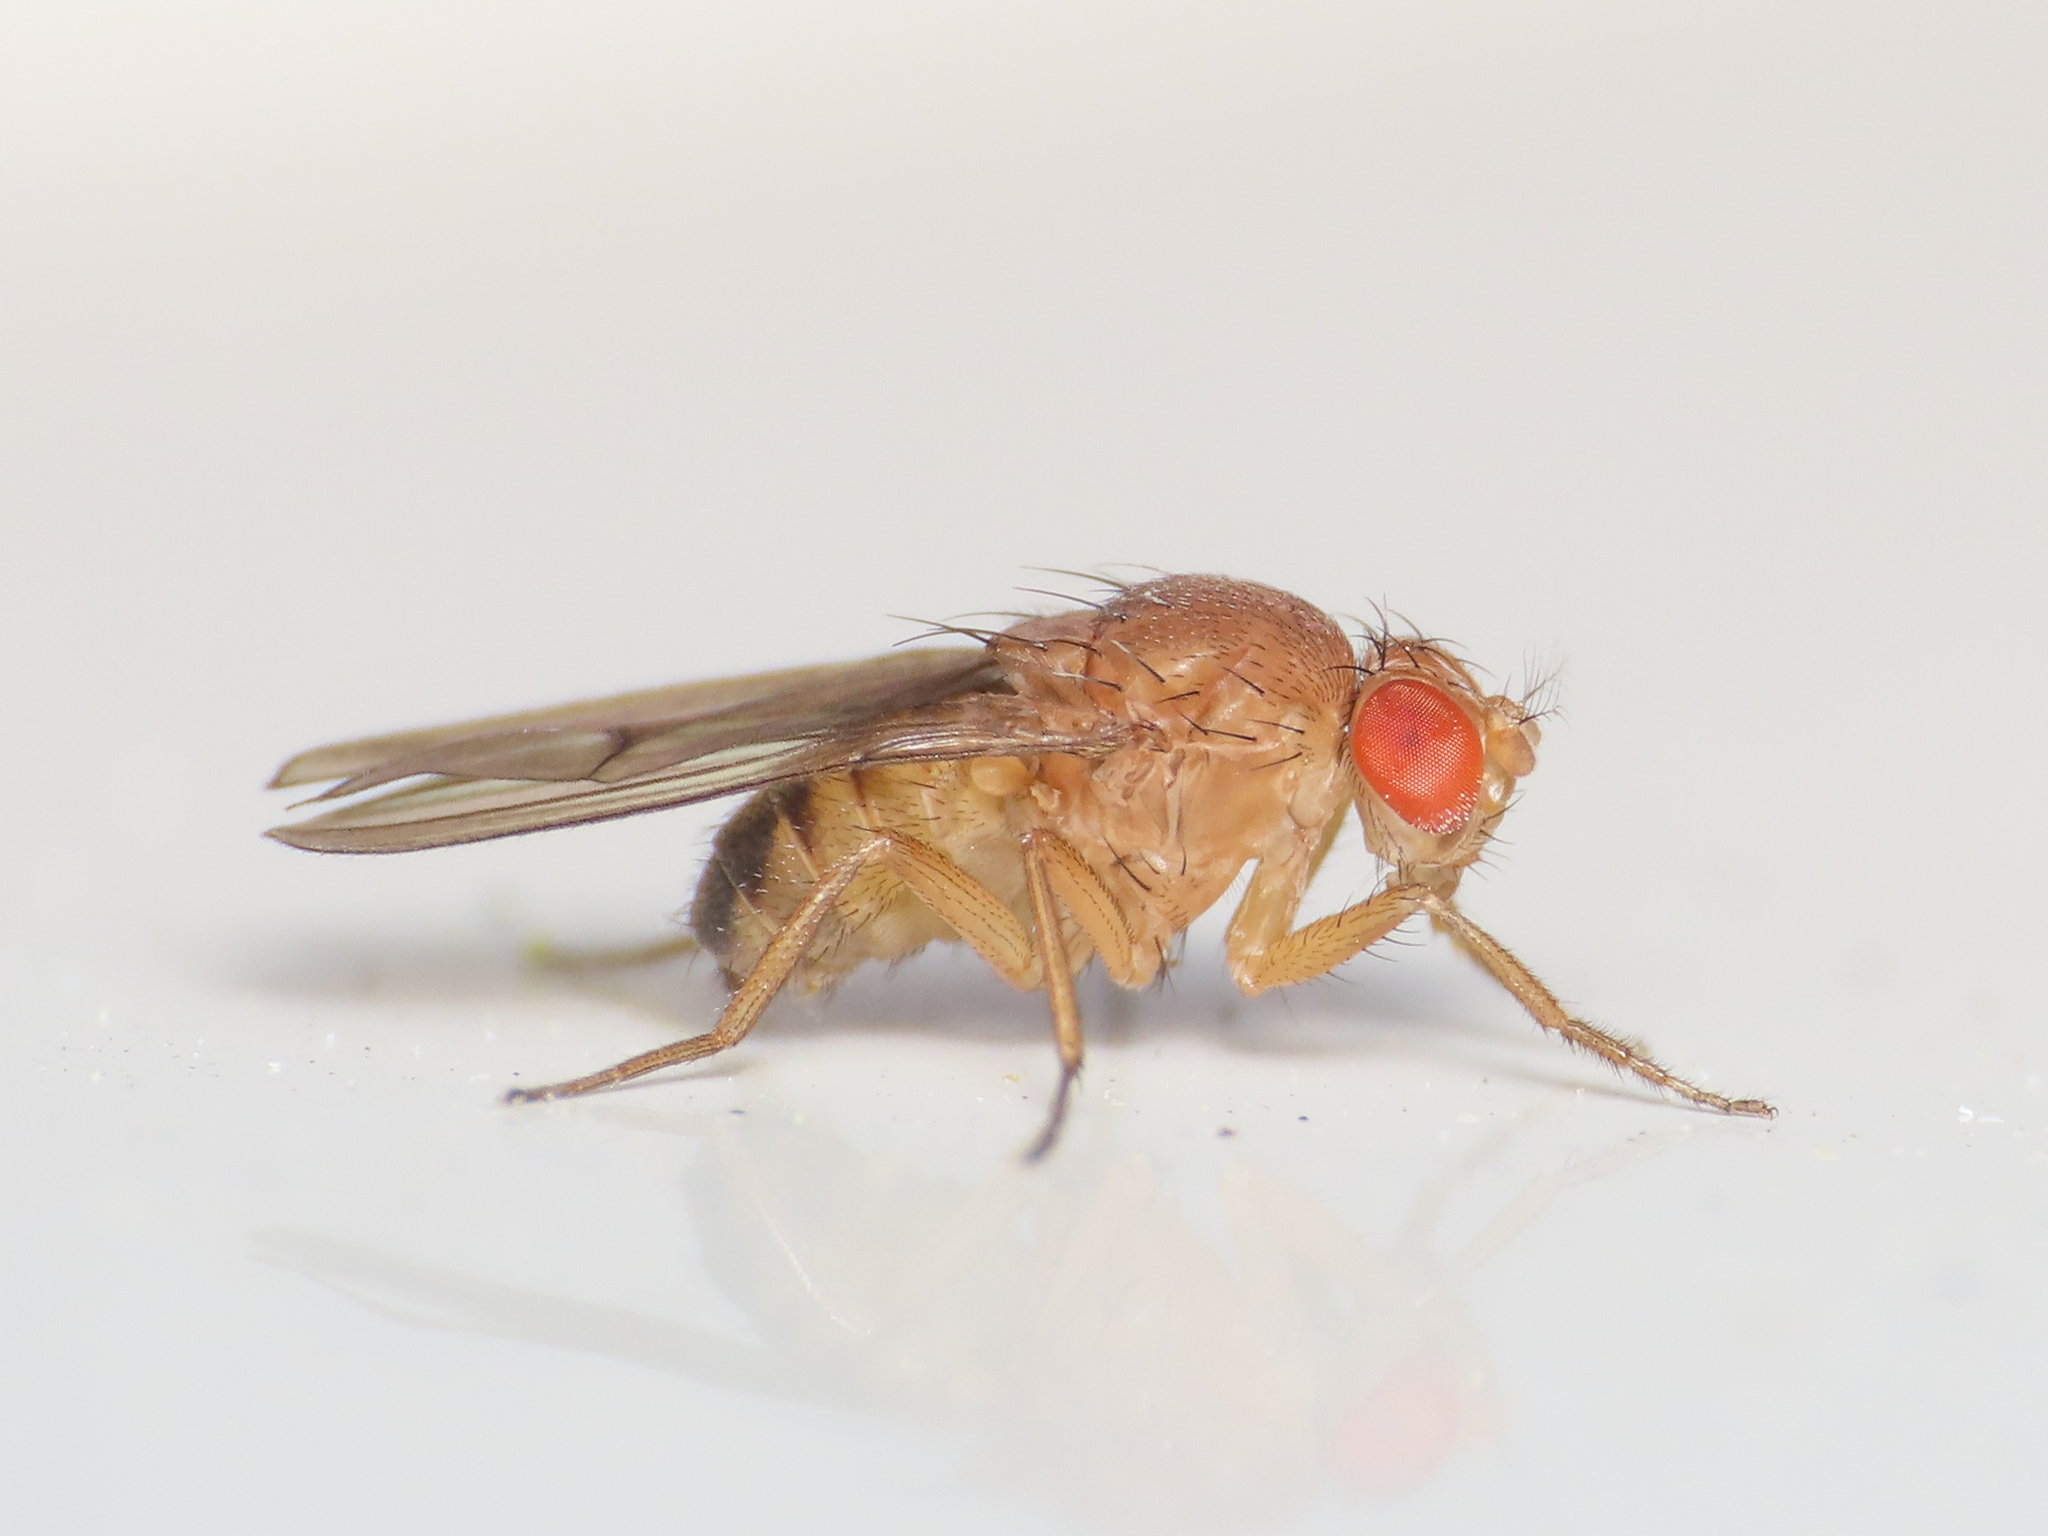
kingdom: Animalia
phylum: Arthropoda
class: Insecta
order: Diptera
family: Drosophilidae
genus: Drosophila
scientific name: Drosophila immigrans
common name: Pomace fly
